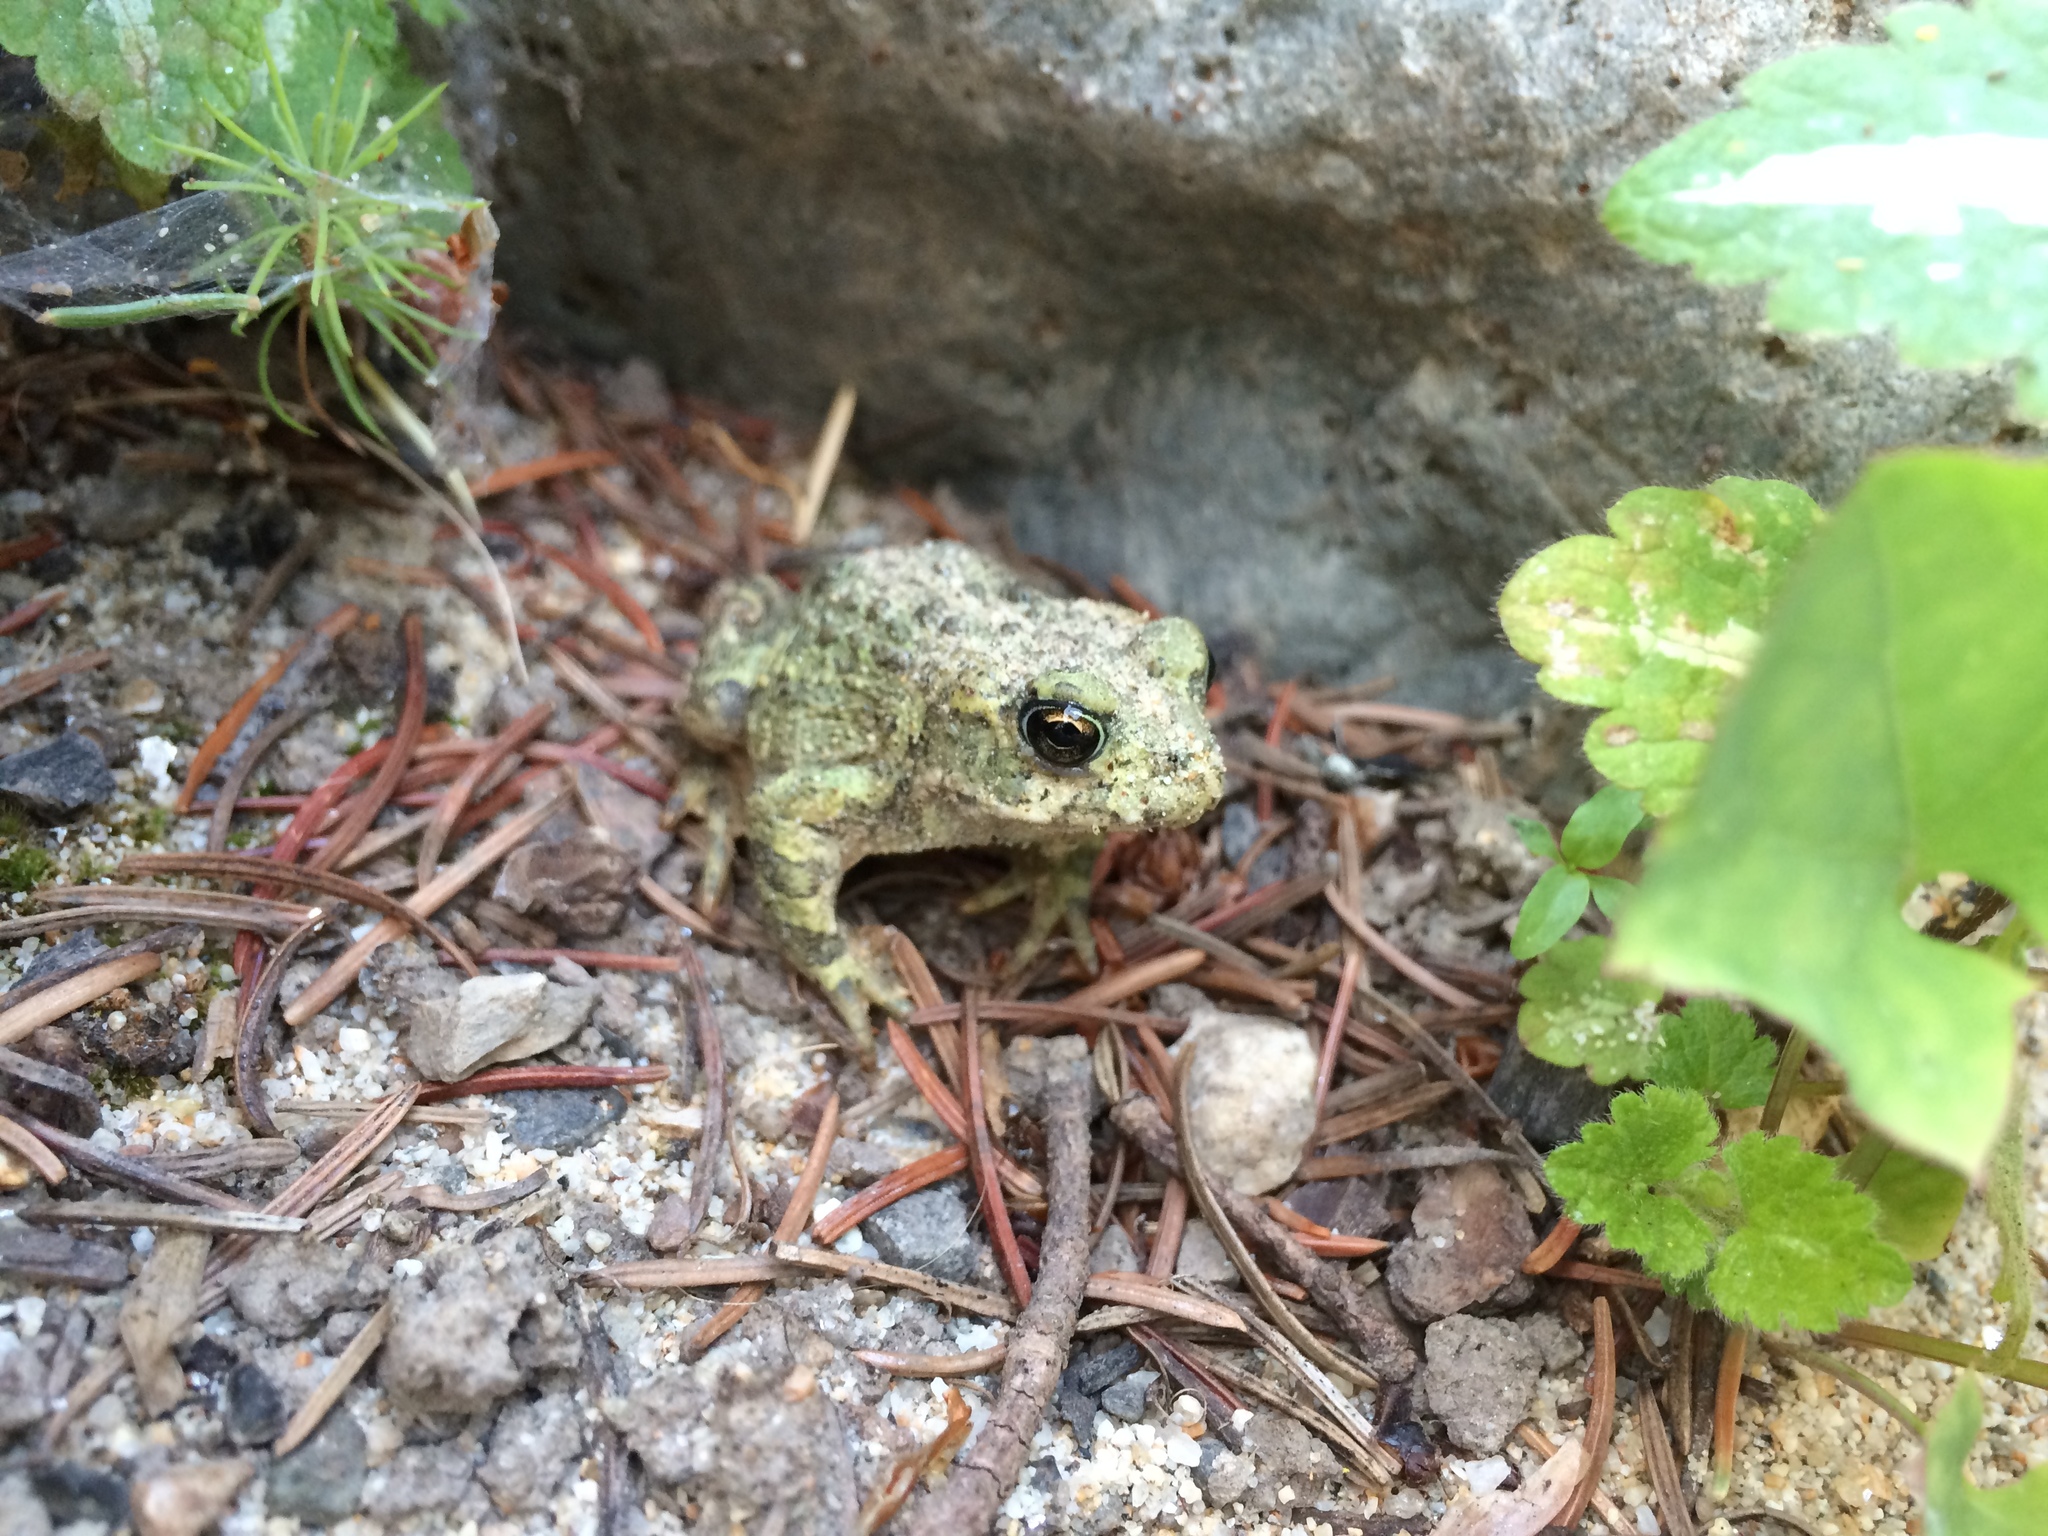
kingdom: Animalia
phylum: Chordata
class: Amphibia
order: Anura
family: Bufonidae
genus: Anaxyrus
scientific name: Anaxyrus boreas
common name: Western toad
